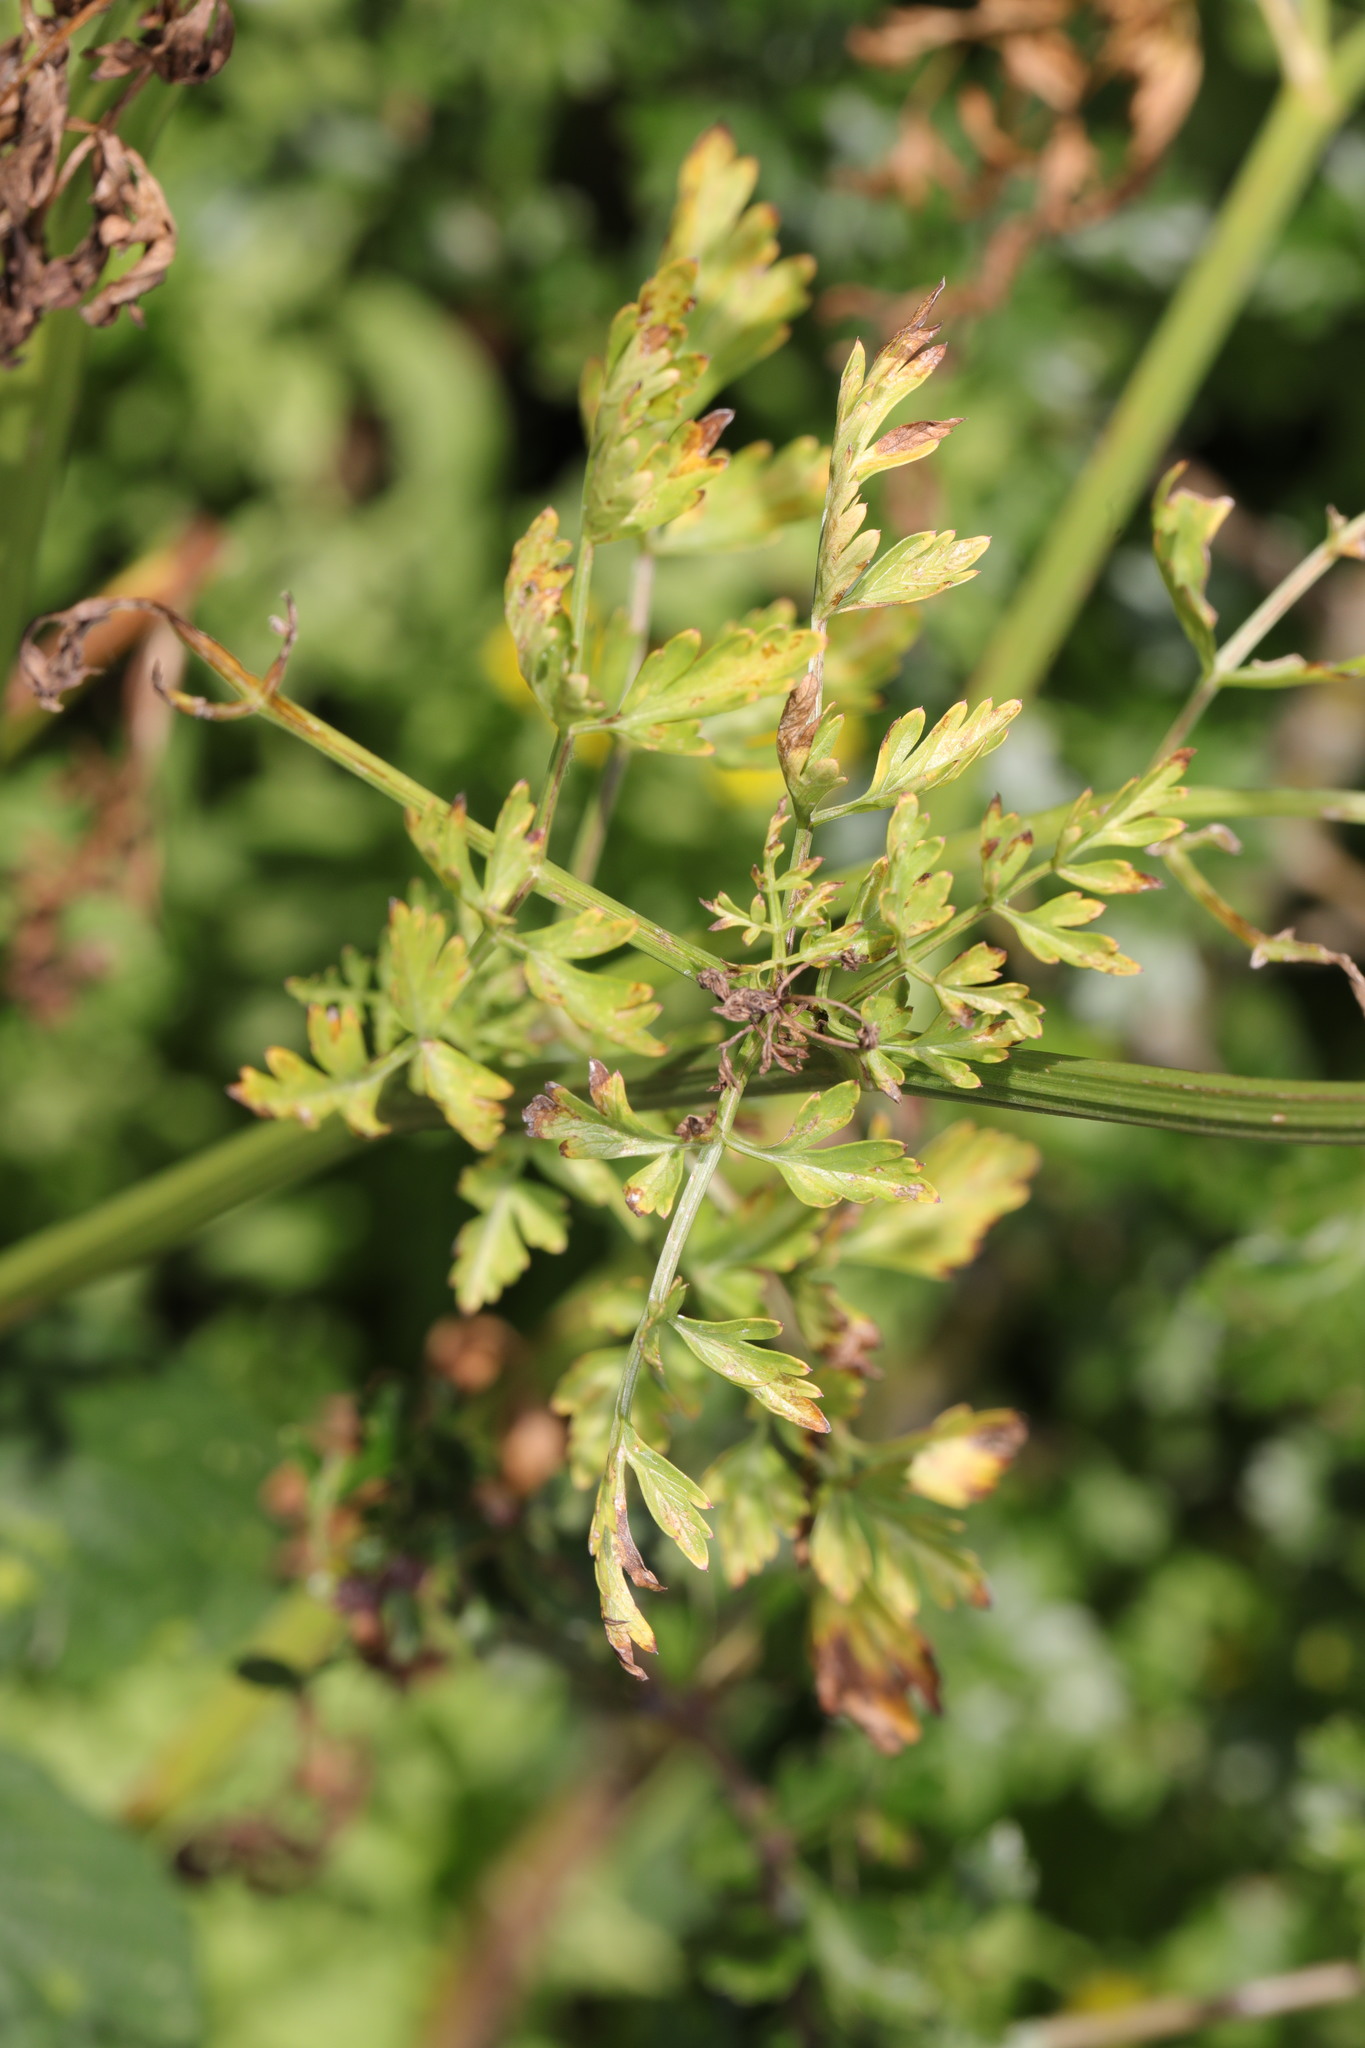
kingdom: Plantae
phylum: Tracheophyta
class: Magnoliopsida
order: Apiales
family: Apiaceae
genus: Oenanthe
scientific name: Oenanthe crocata
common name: Hemlock water-dropwort
